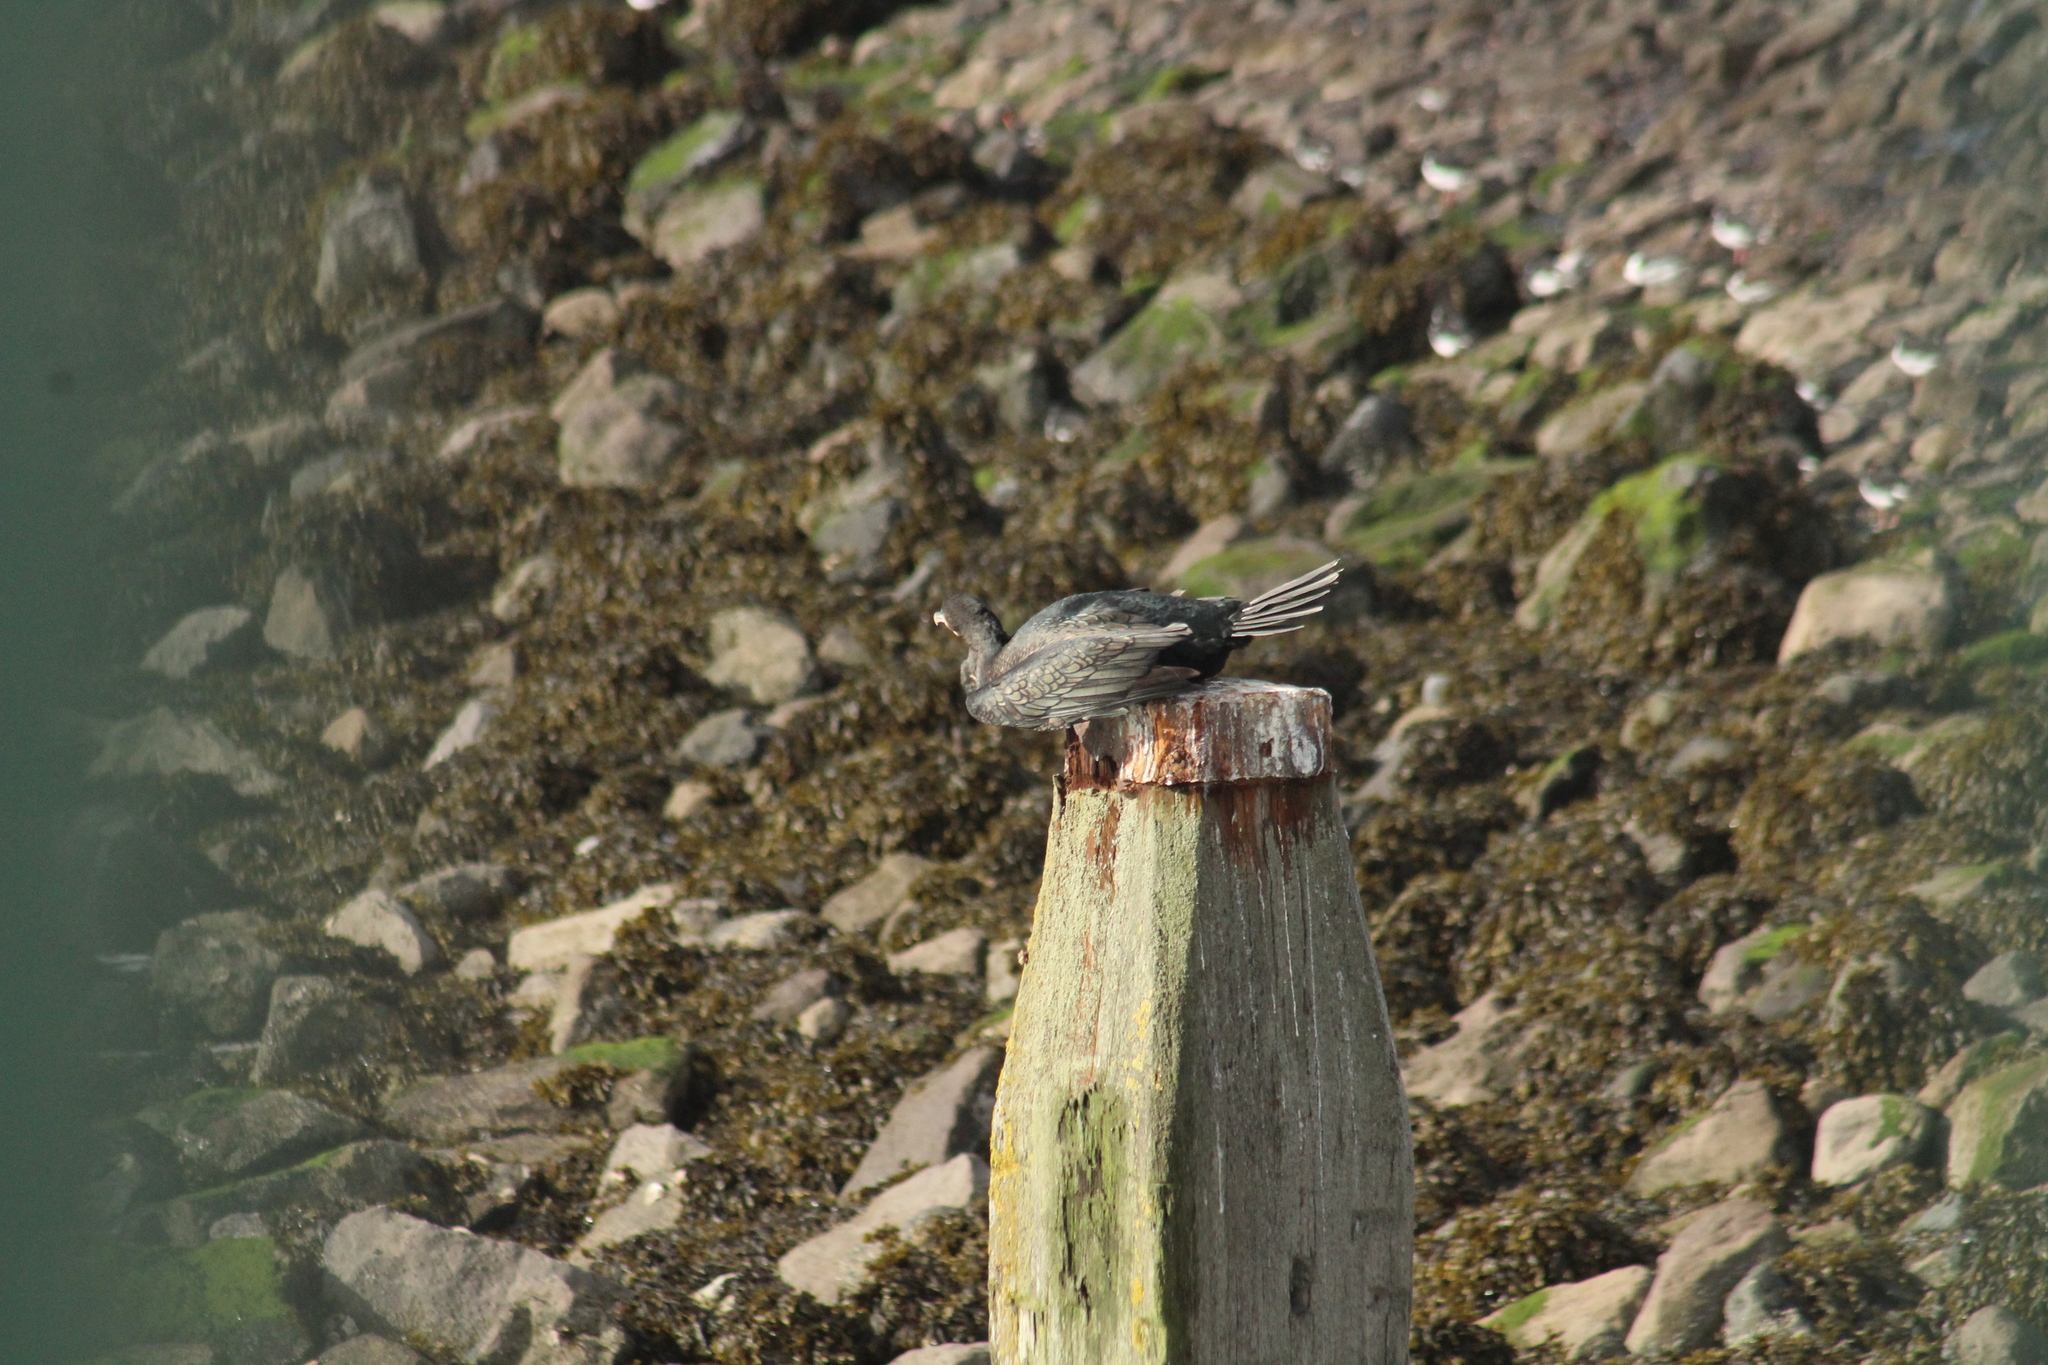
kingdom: Animalia
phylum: Chordata
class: Aves
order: Suliformes
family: Phalacrocoracidae
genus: Phalacrocorax
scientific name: Phalacrocorax carbo
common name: Great cormorant
